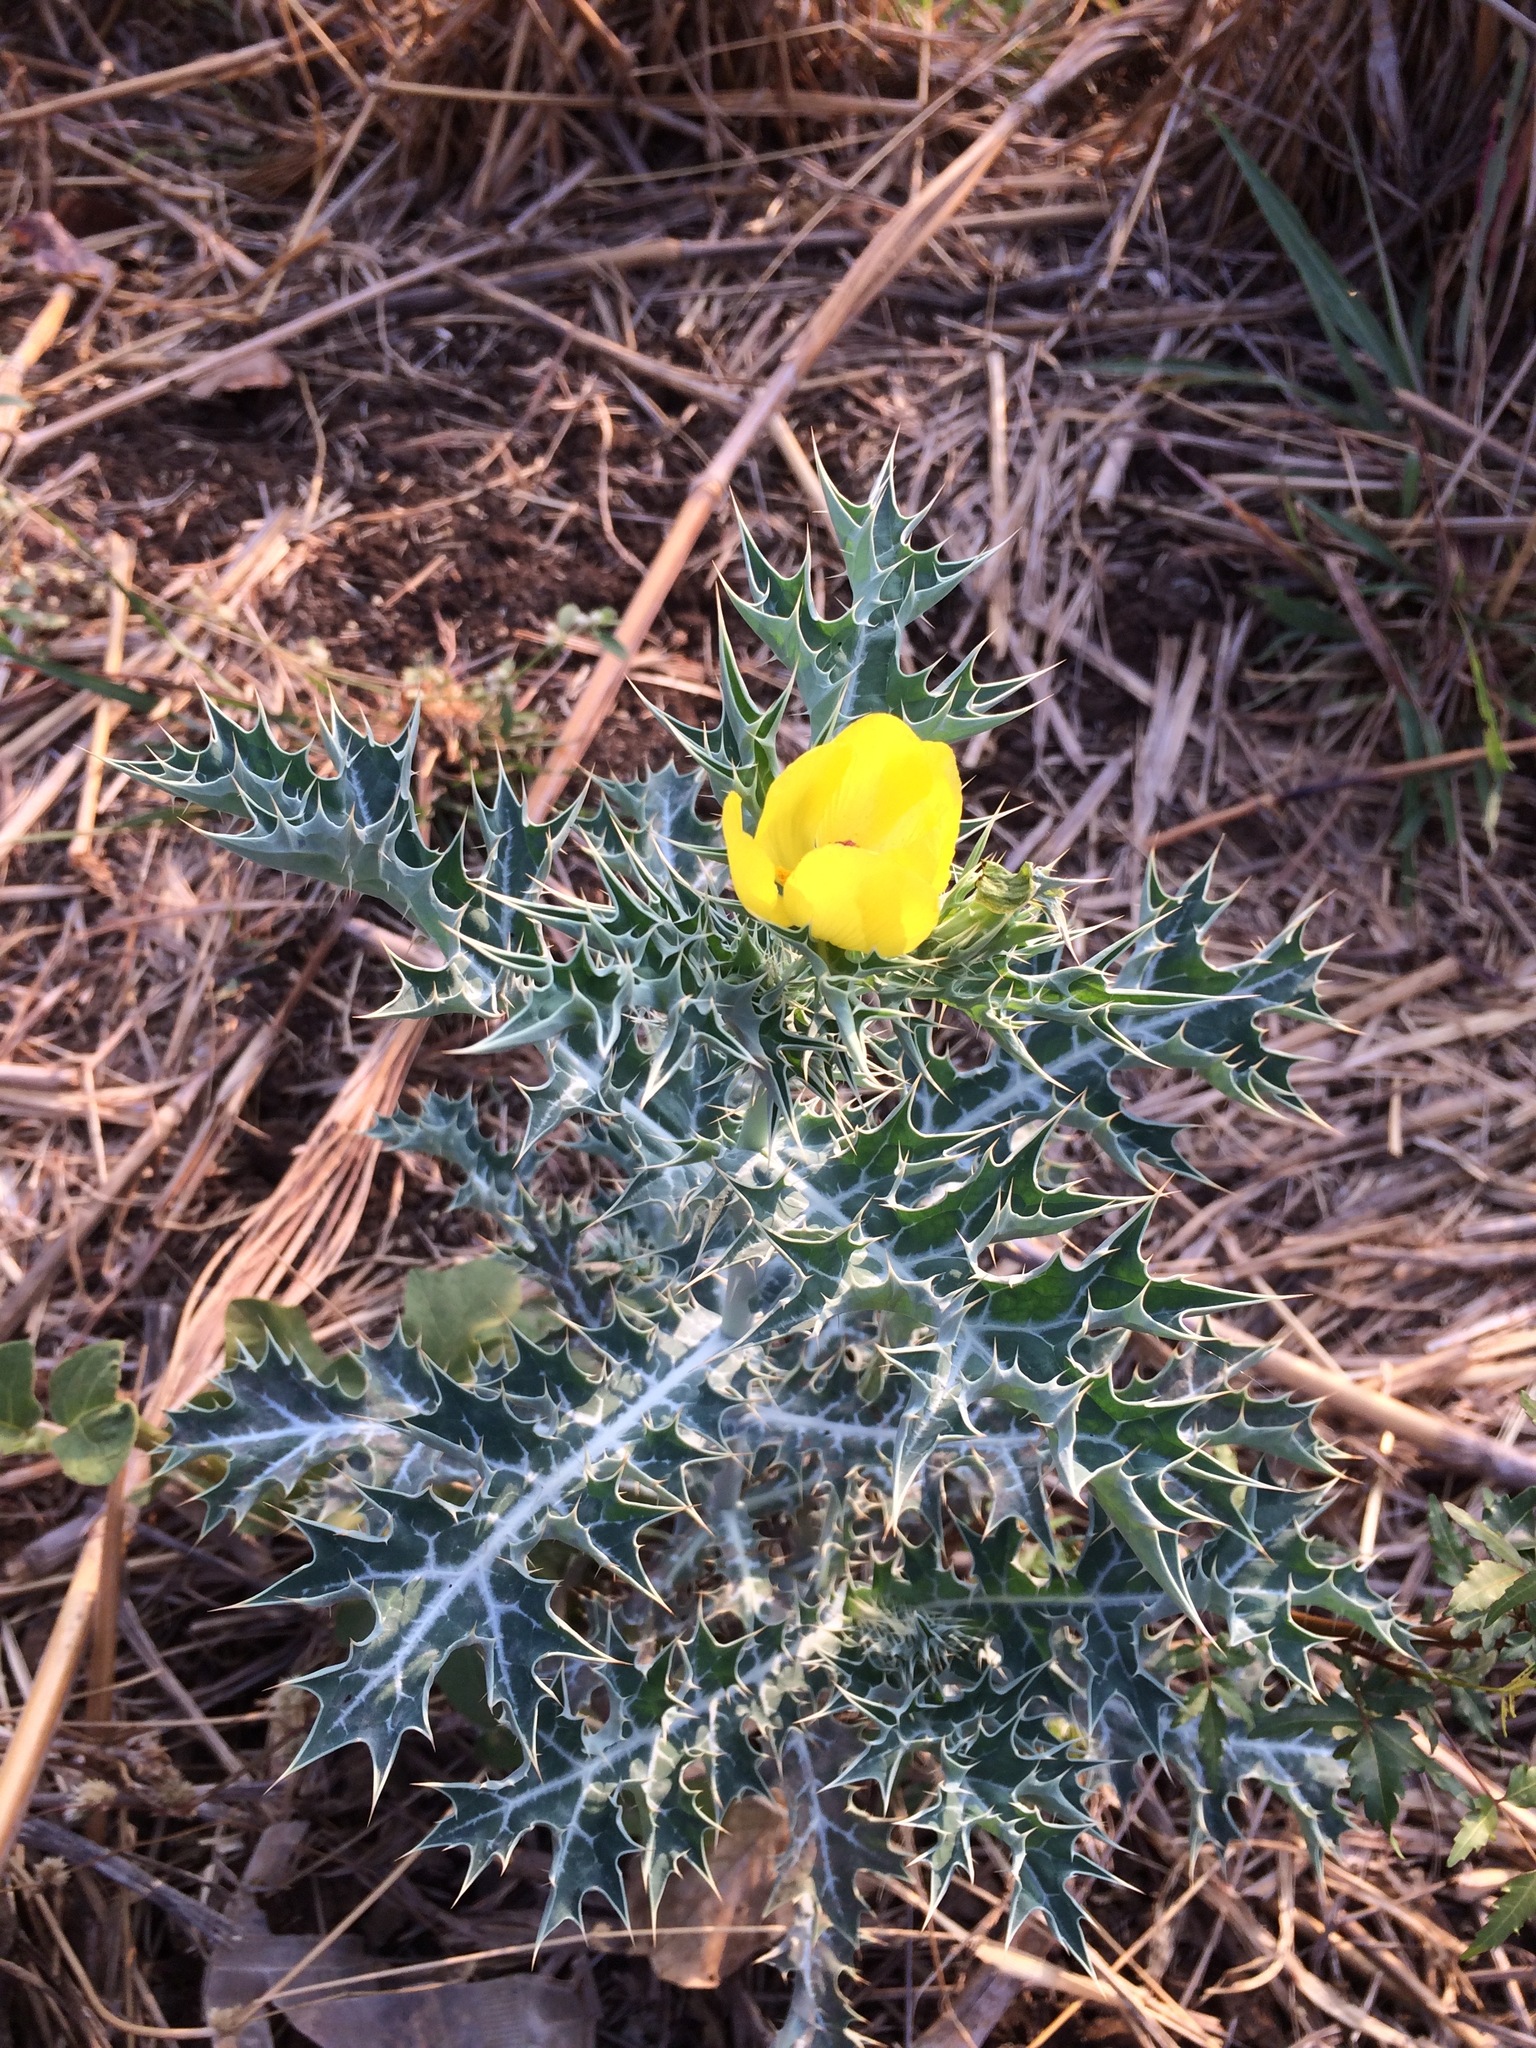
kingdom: Plantae
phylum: Tracheophyta
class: Magnoliopsida
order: Ranunculales
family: Papaveraceae
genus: Argemone
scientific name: Argemone mexicana
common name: Mexican poppy
